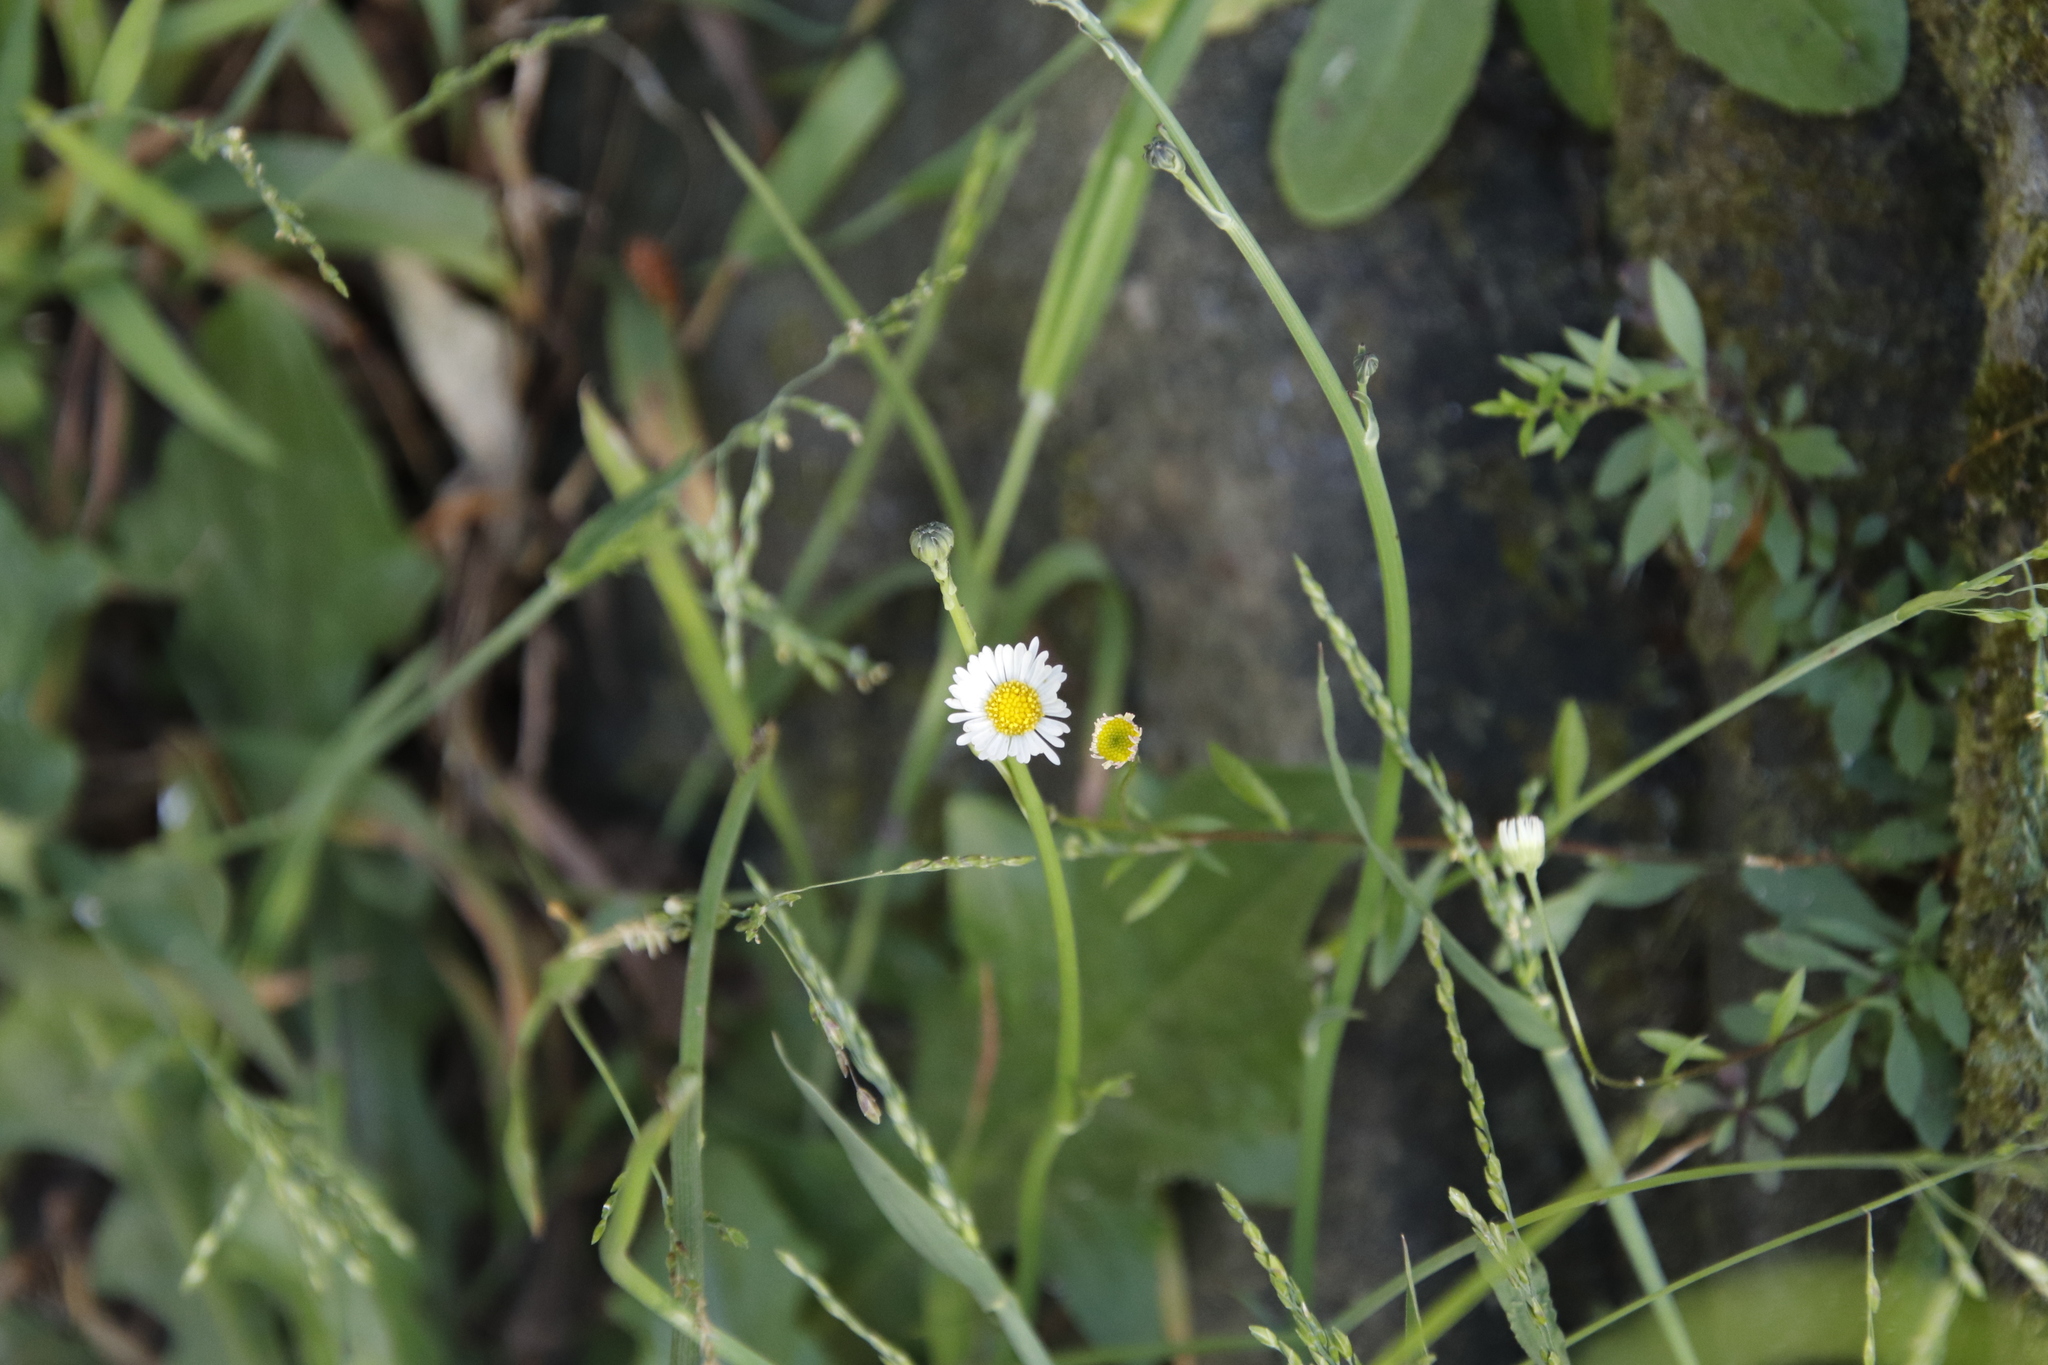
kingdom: Plantae
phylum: Tracheophyta
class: Magnoliopsida
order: Asterales
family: Asteraceae
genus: Erigeron
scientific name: Erigeron karvinskianus
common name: Mexican fleabane
